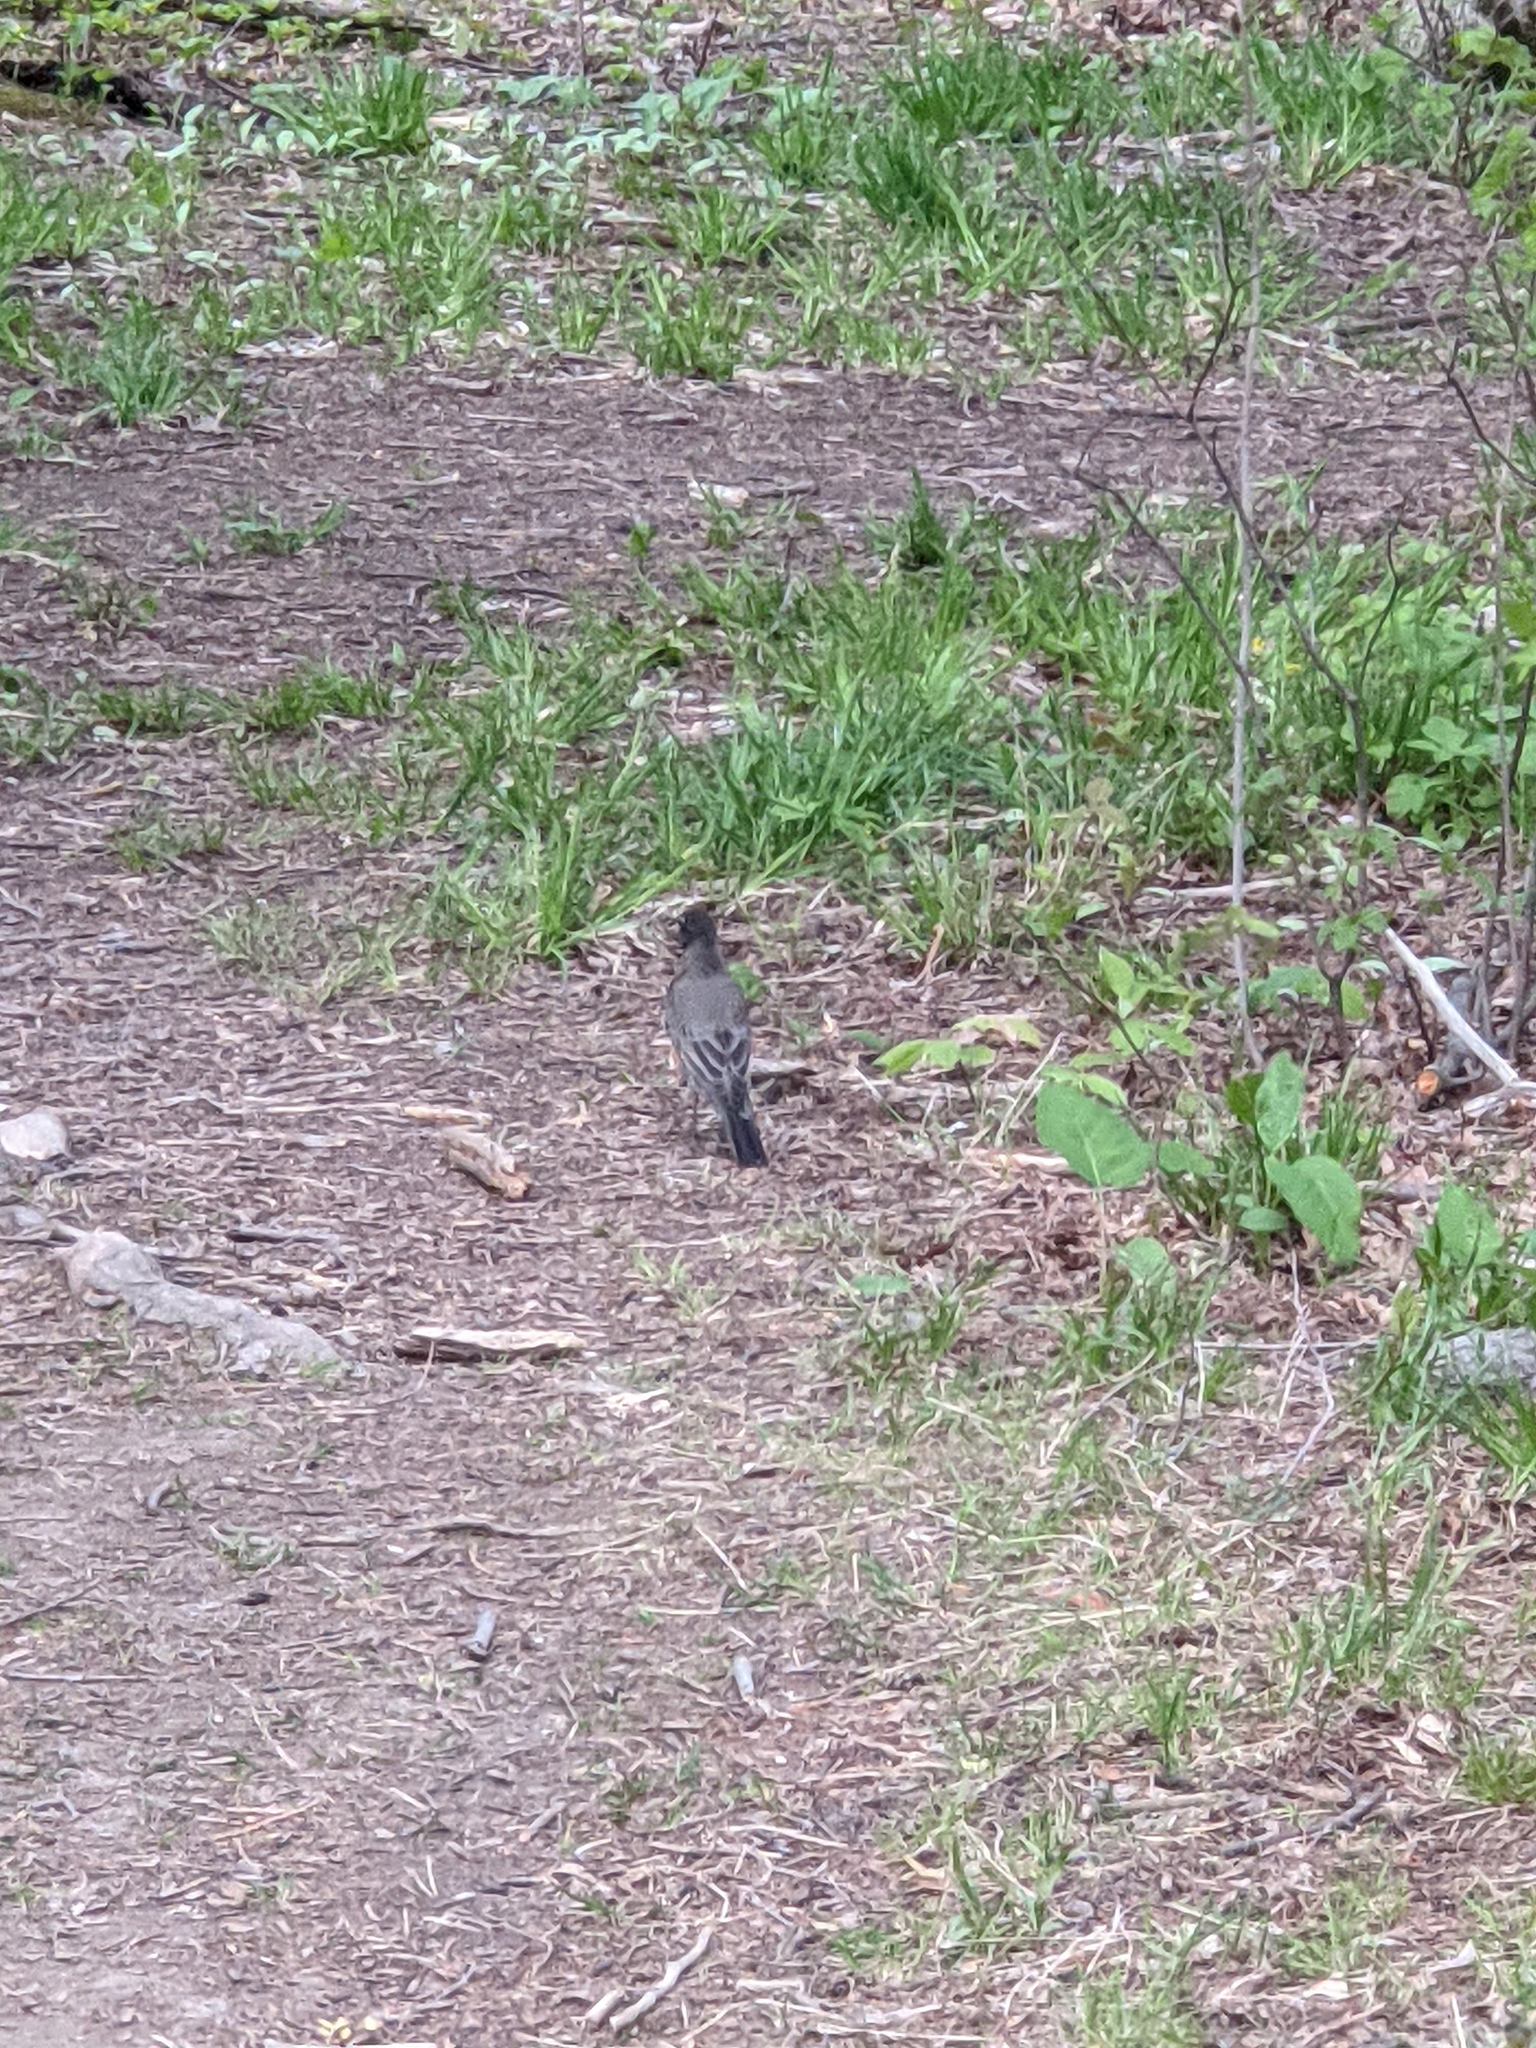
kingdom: Animalia
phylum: Chordata
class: Aves
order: Passeriformes
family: Turdidae
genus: Turdus
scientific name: Turdus migratorius
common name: American robin
